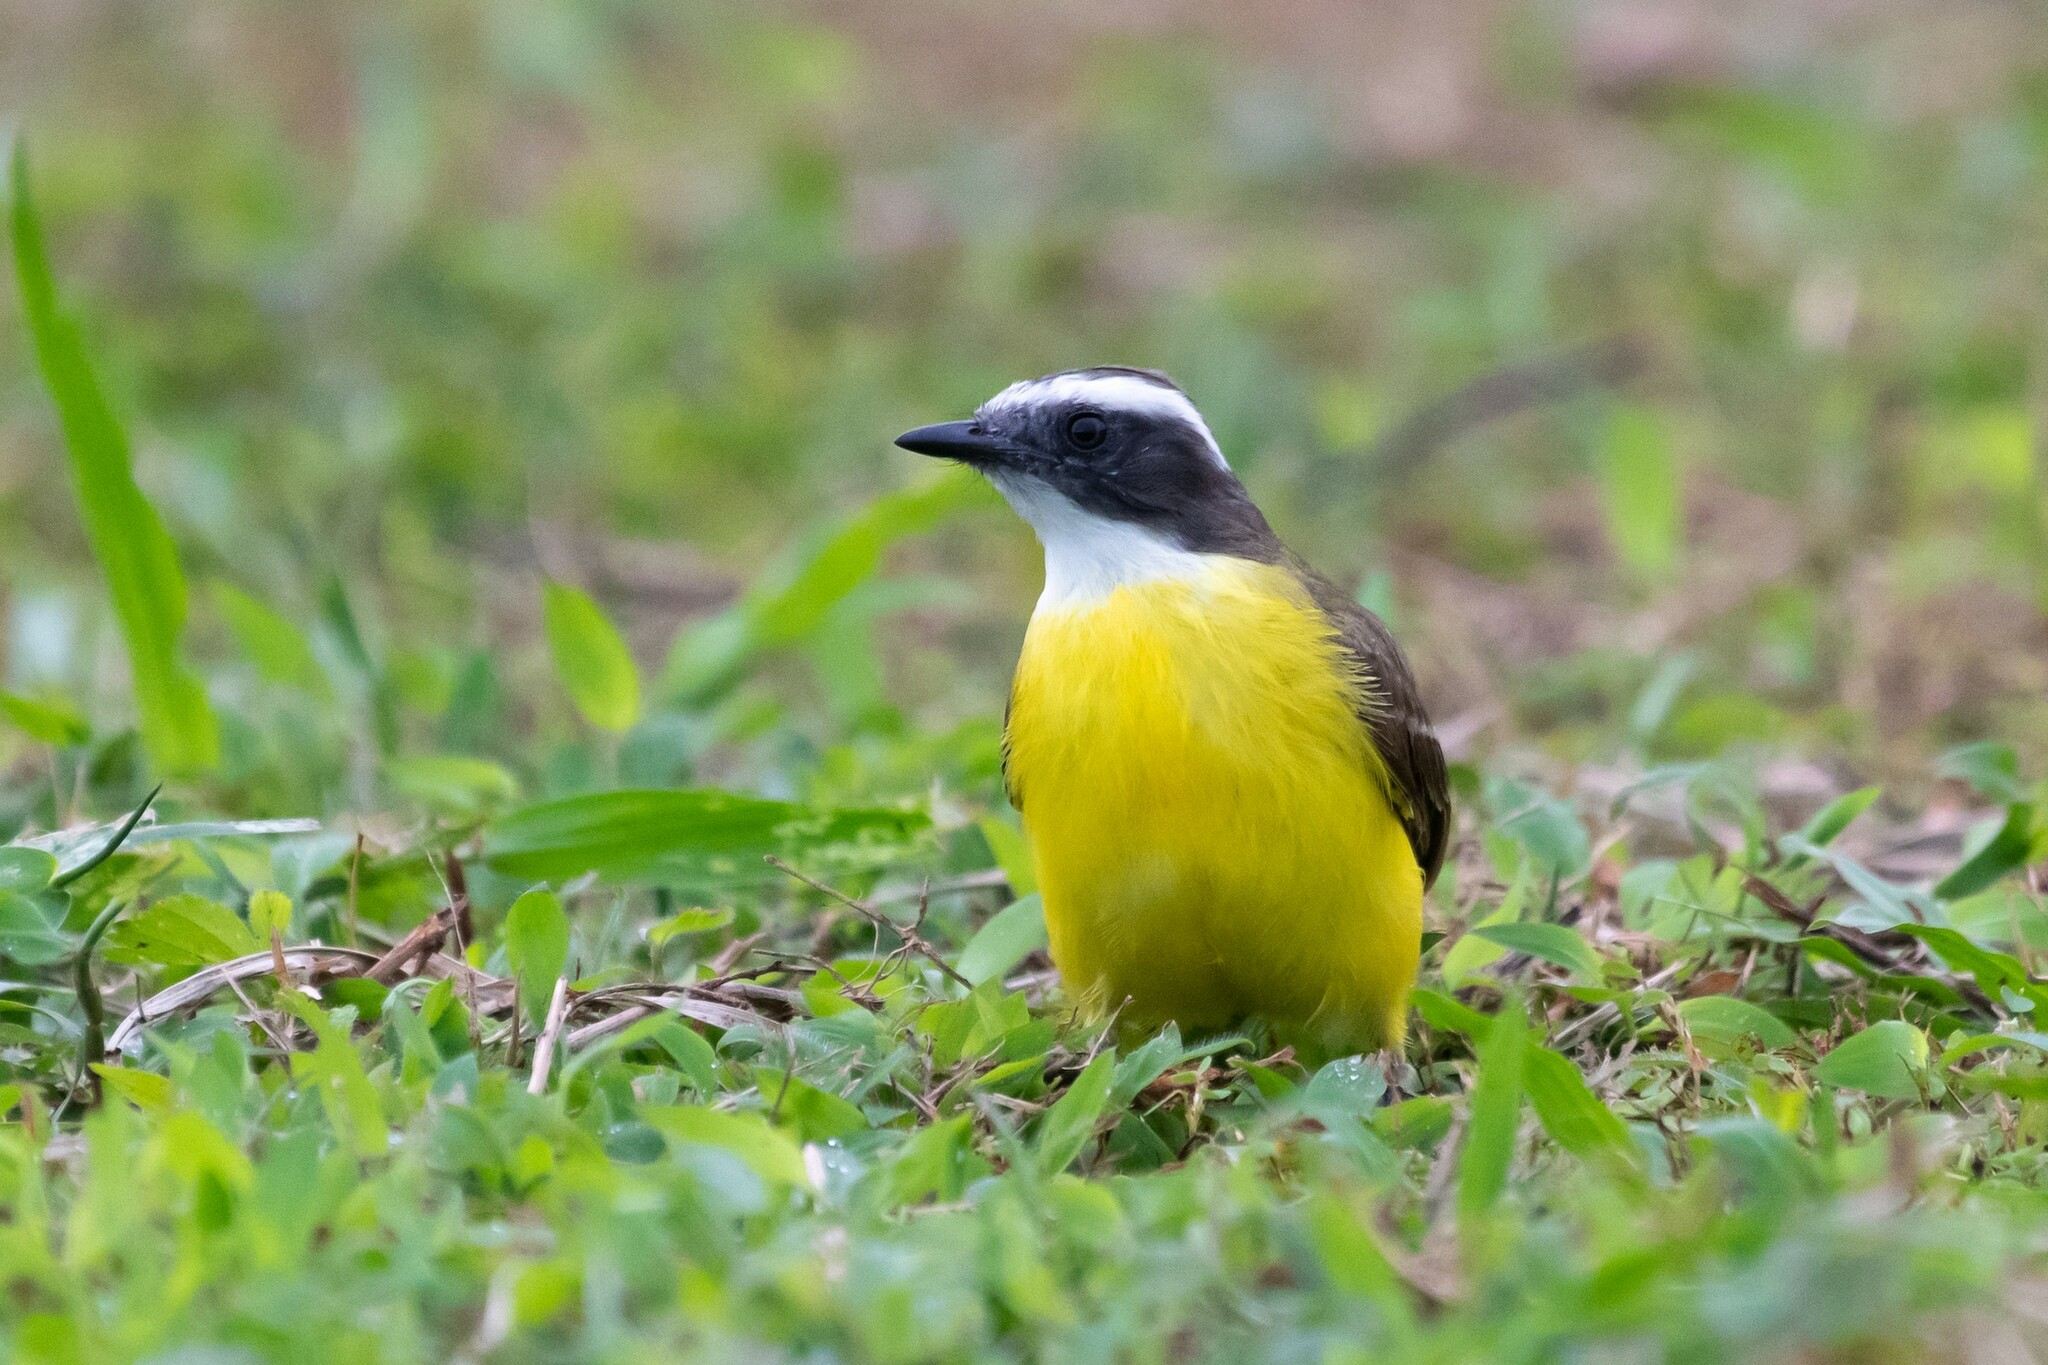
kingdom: Animalia
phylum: Chordata
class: Aves
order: Passeriformes
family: Tyrannidae
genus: Myiozetetes
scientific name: Myiozetetes similis
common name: Social flycatcher
